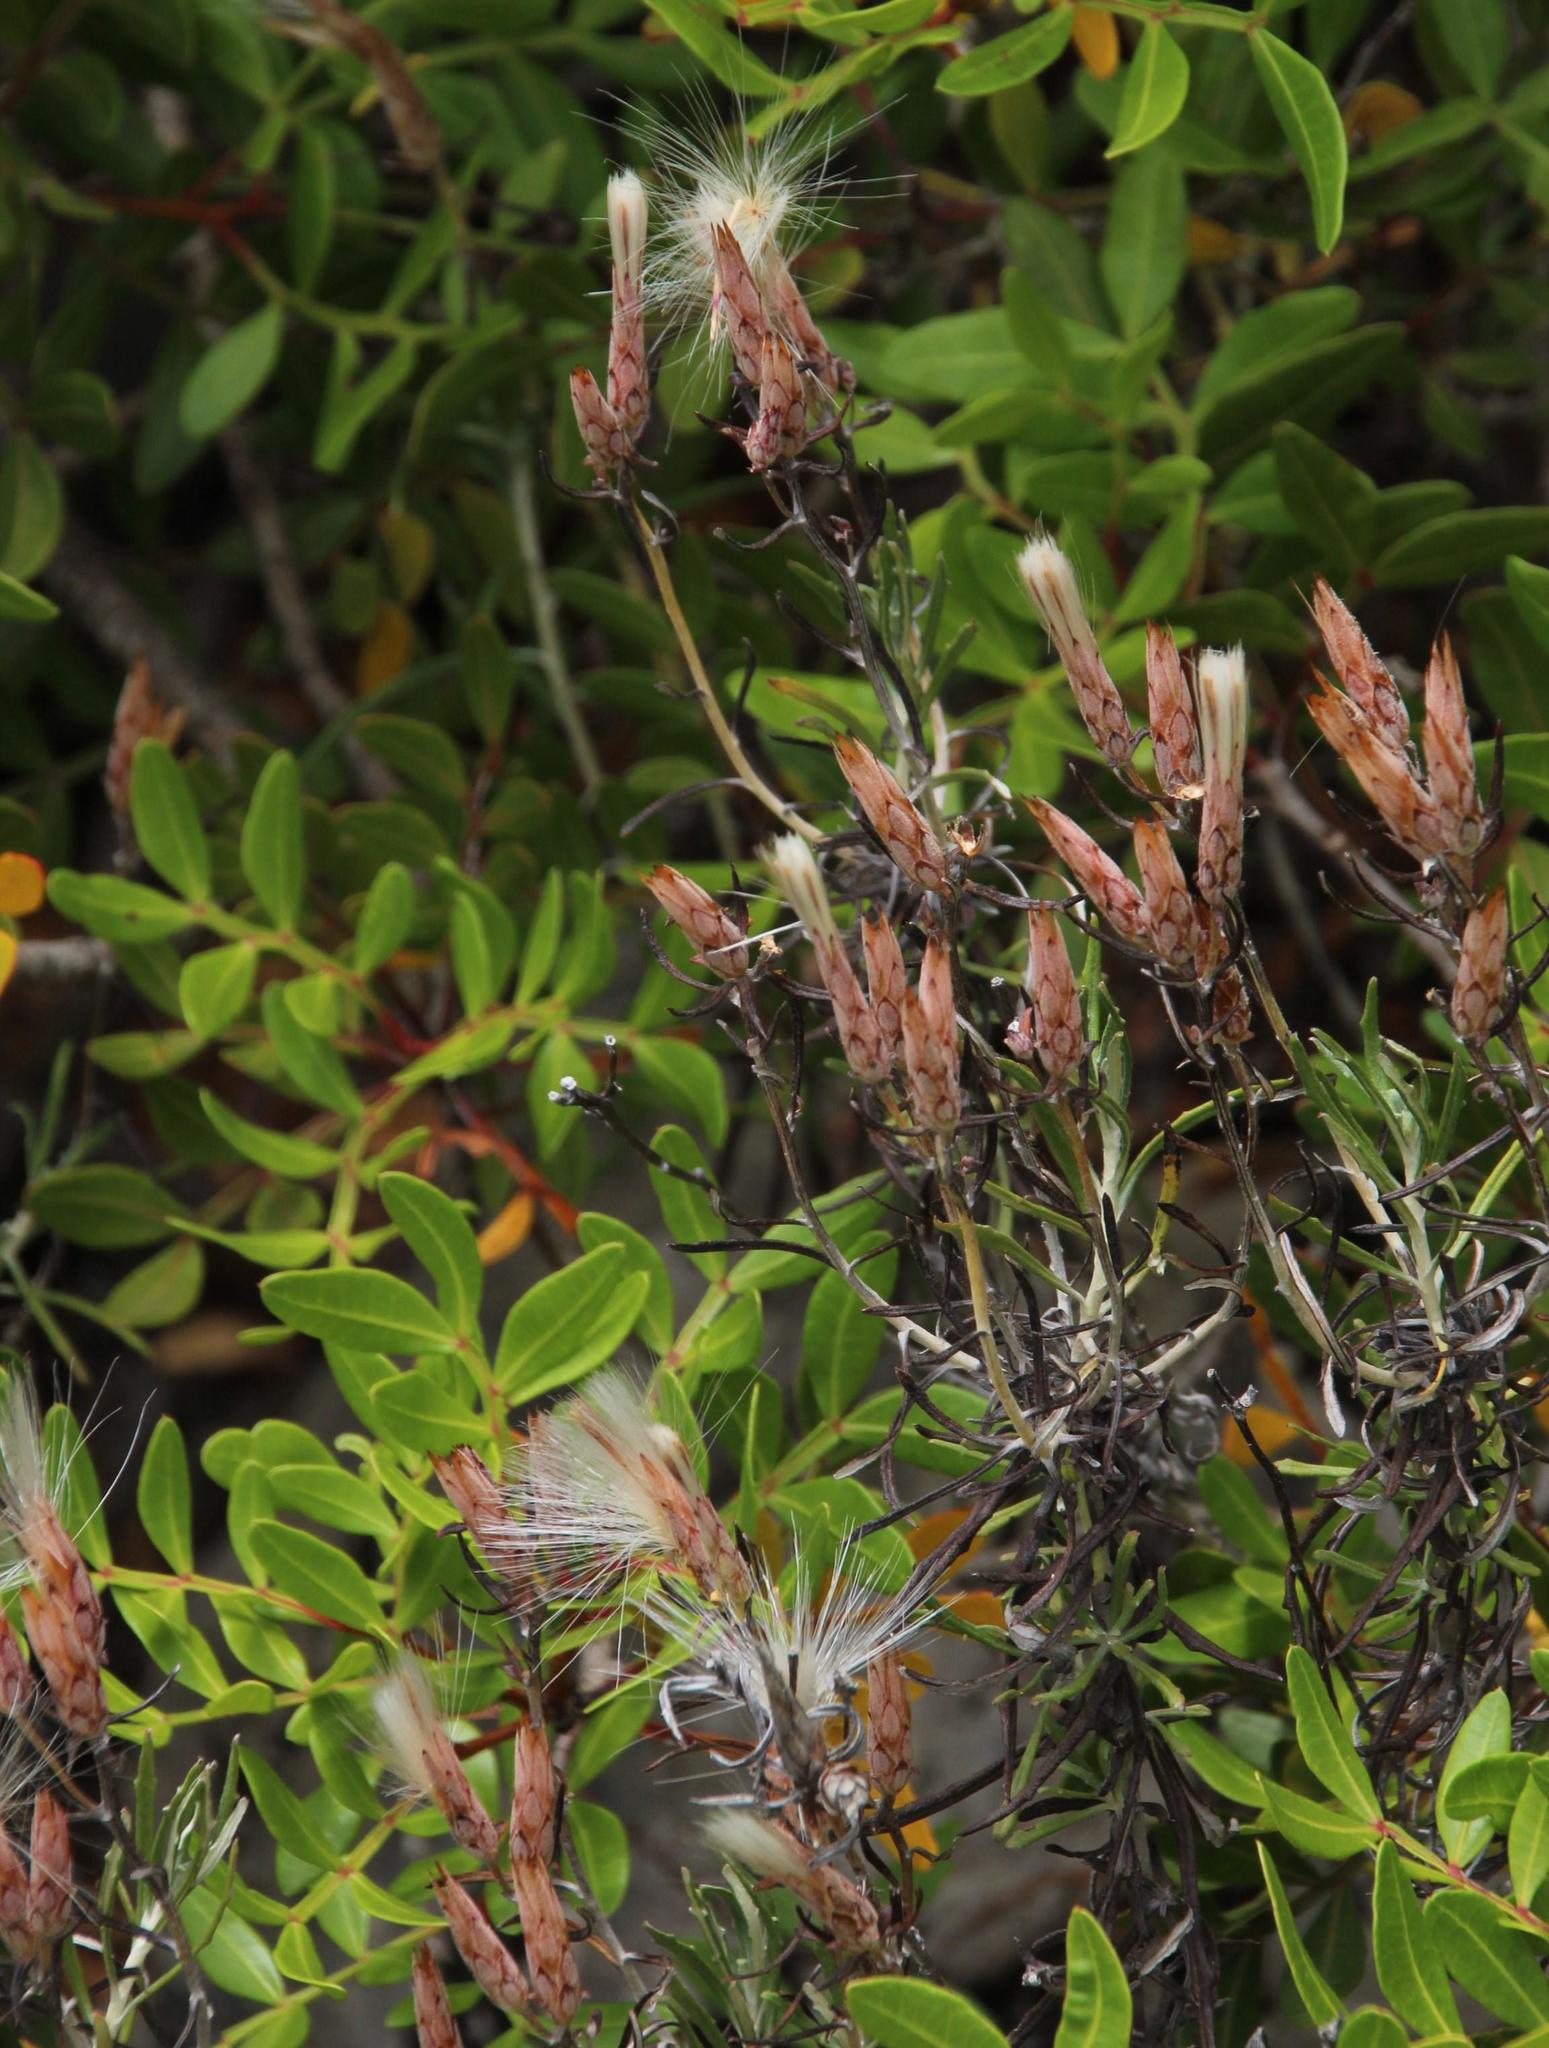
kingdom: Plantae
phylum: Tracheophyta
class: Magnoliopsida
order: Asterales
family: Asteraceae
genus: Staehelina
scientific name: Staehelina dubia
